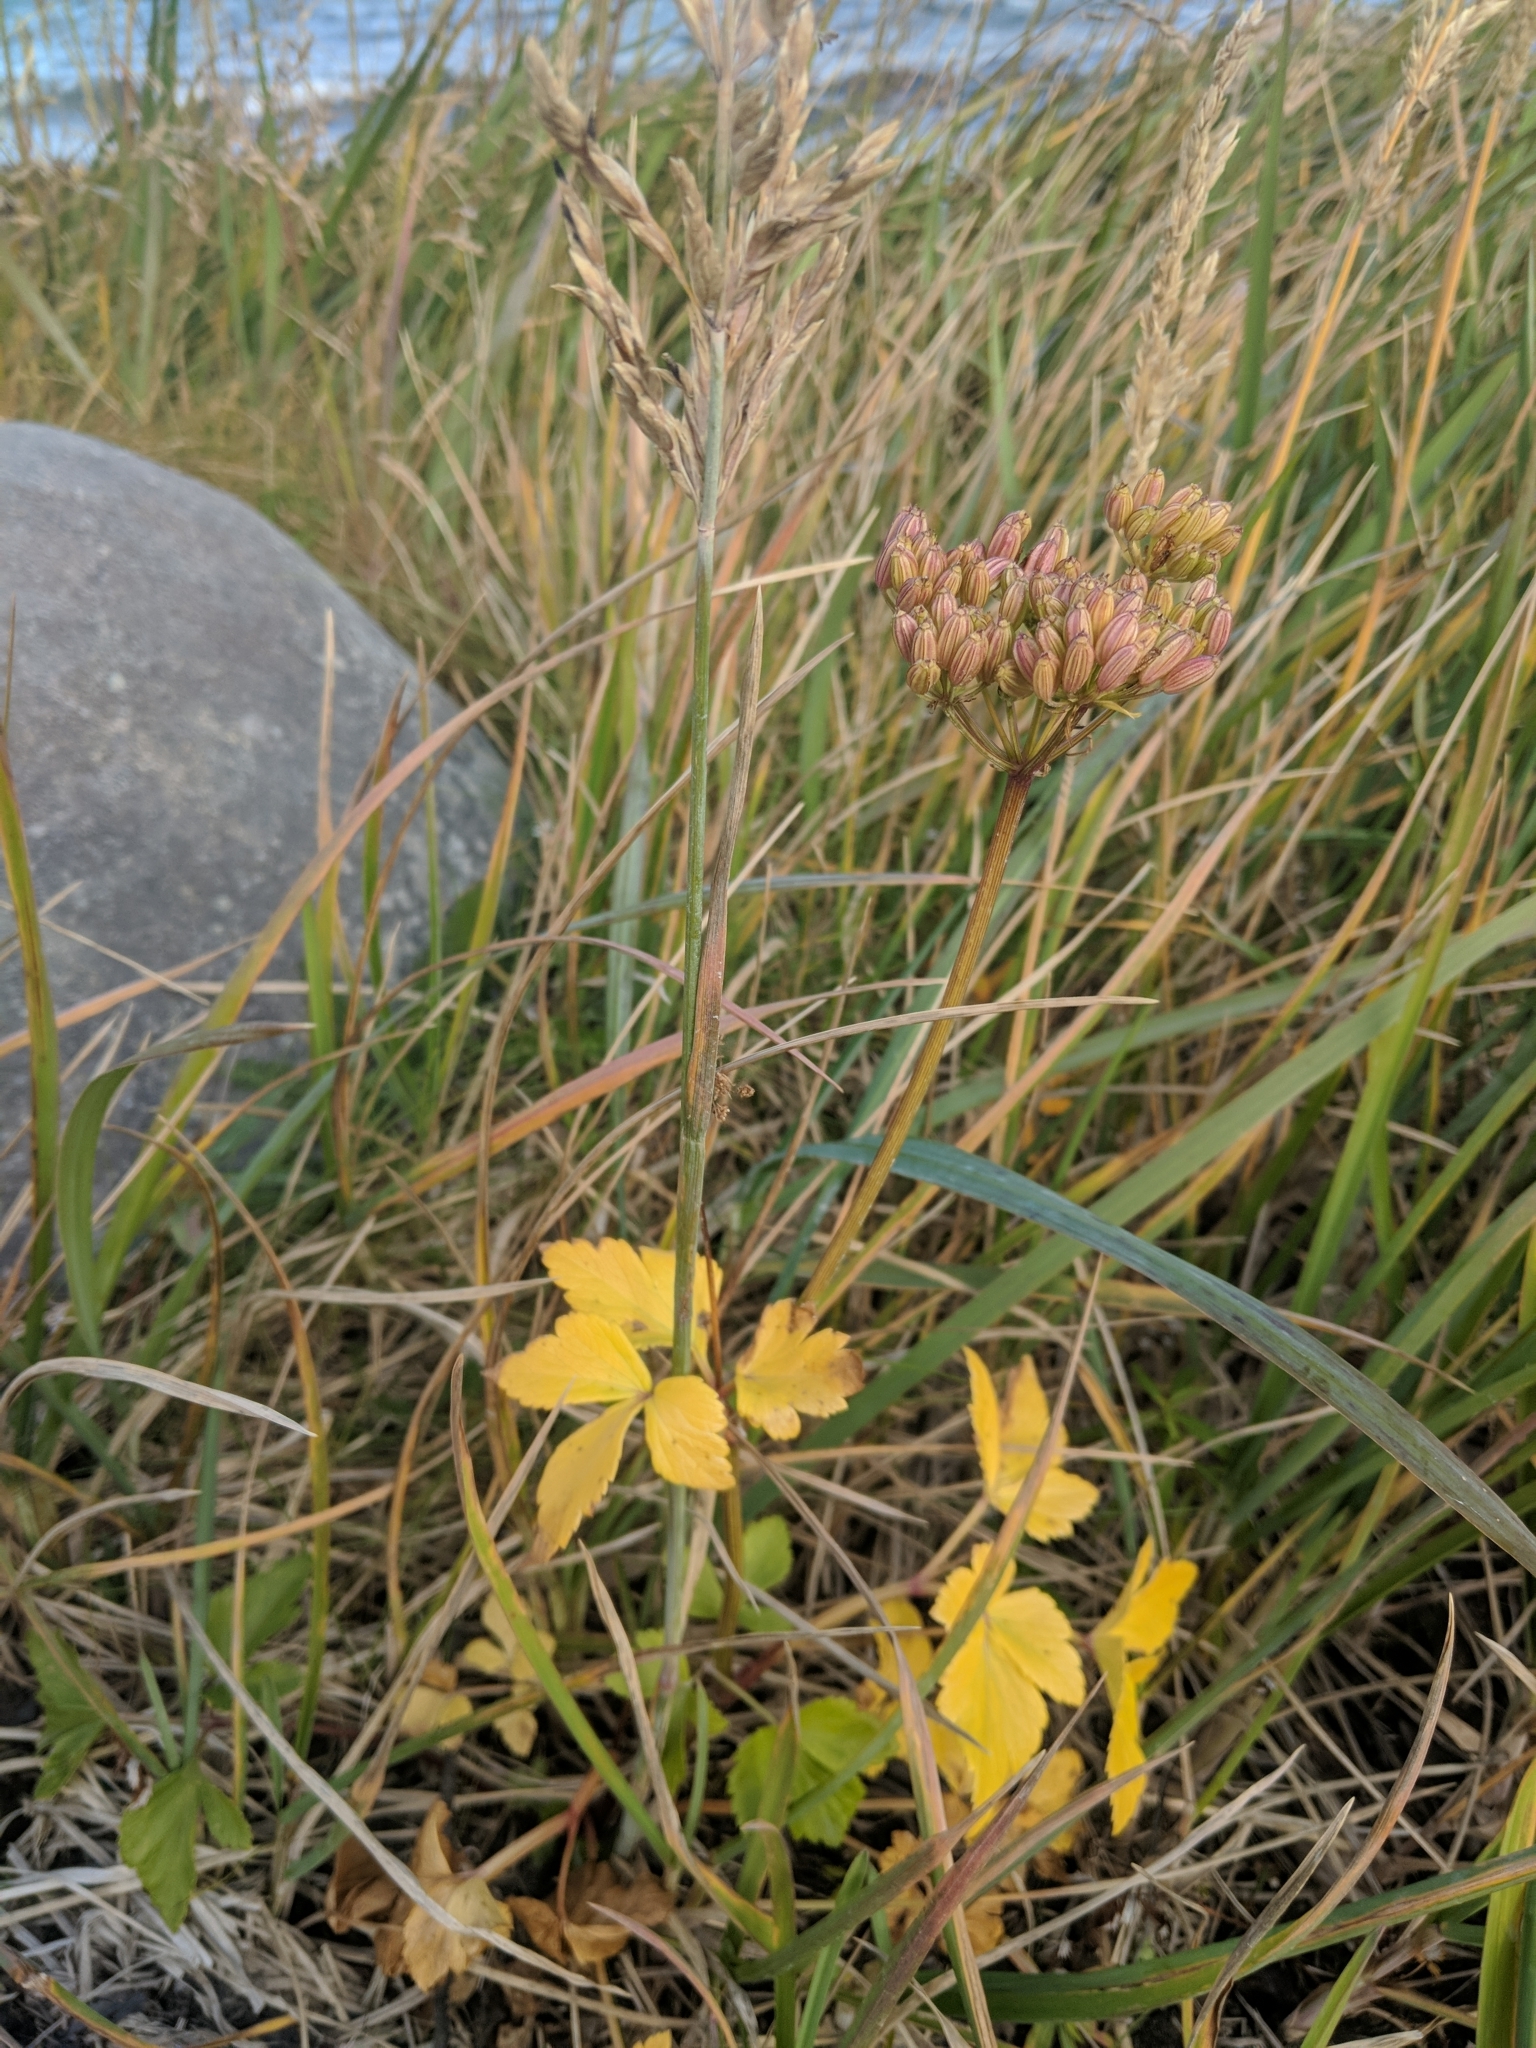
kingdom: Plantae
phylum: Tracheophyta
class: Magnoliopsida
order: Apiales
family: Apiaceae
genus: Ligusticum
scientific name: Ligusticum scothicum
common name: Beach lovage
